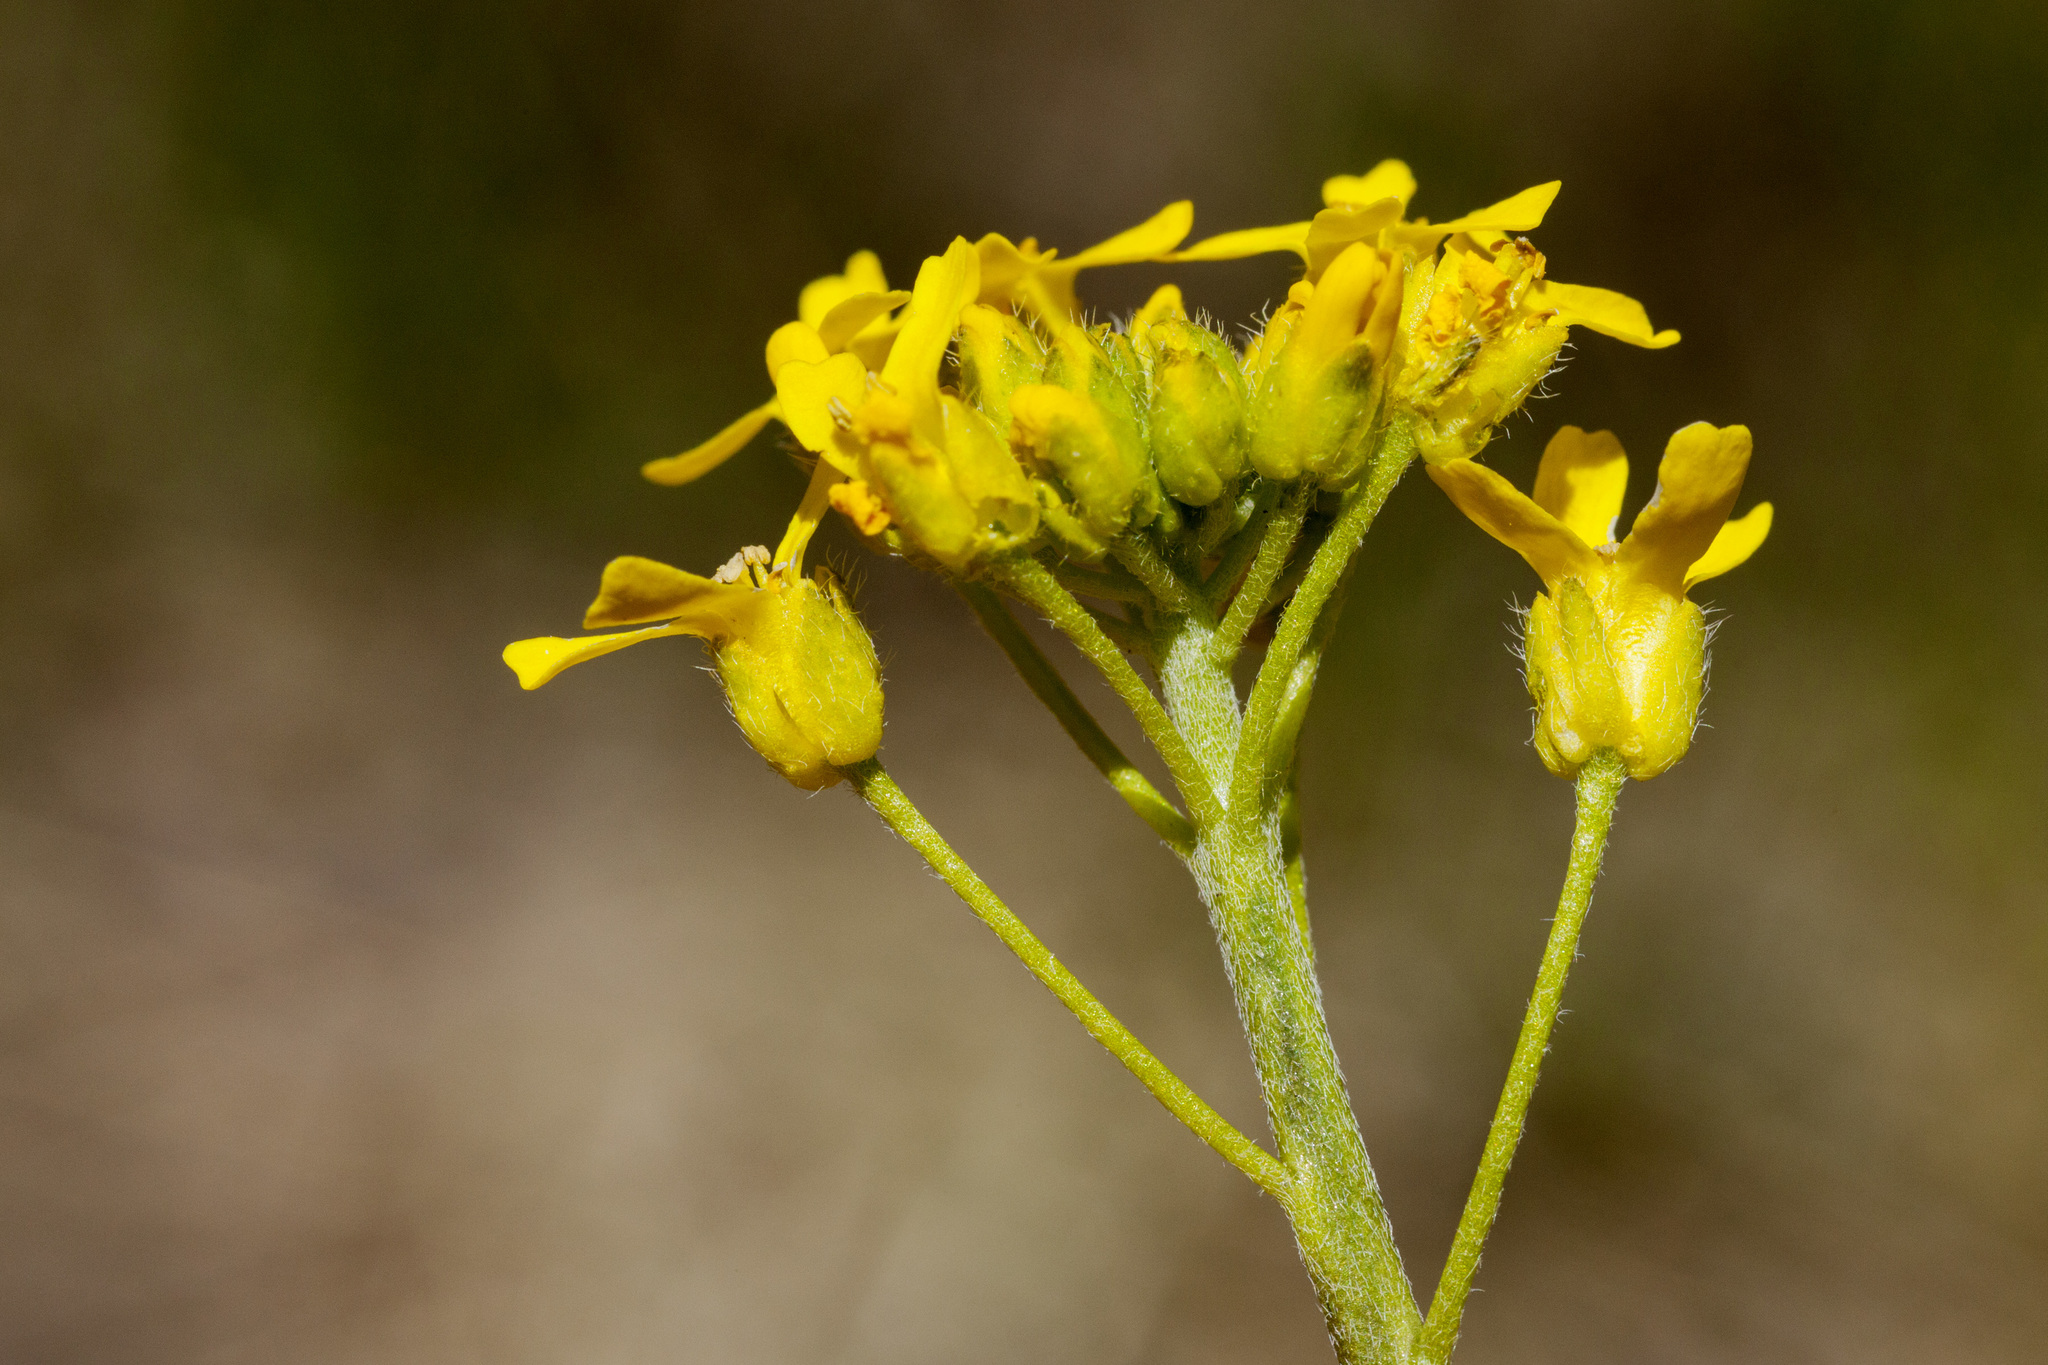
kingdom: Plantae
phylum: Tracheophyta
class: Magnoliopsida
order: Brassicales
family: Brassicaceae
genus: Draba
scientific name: Draba spectabilis
